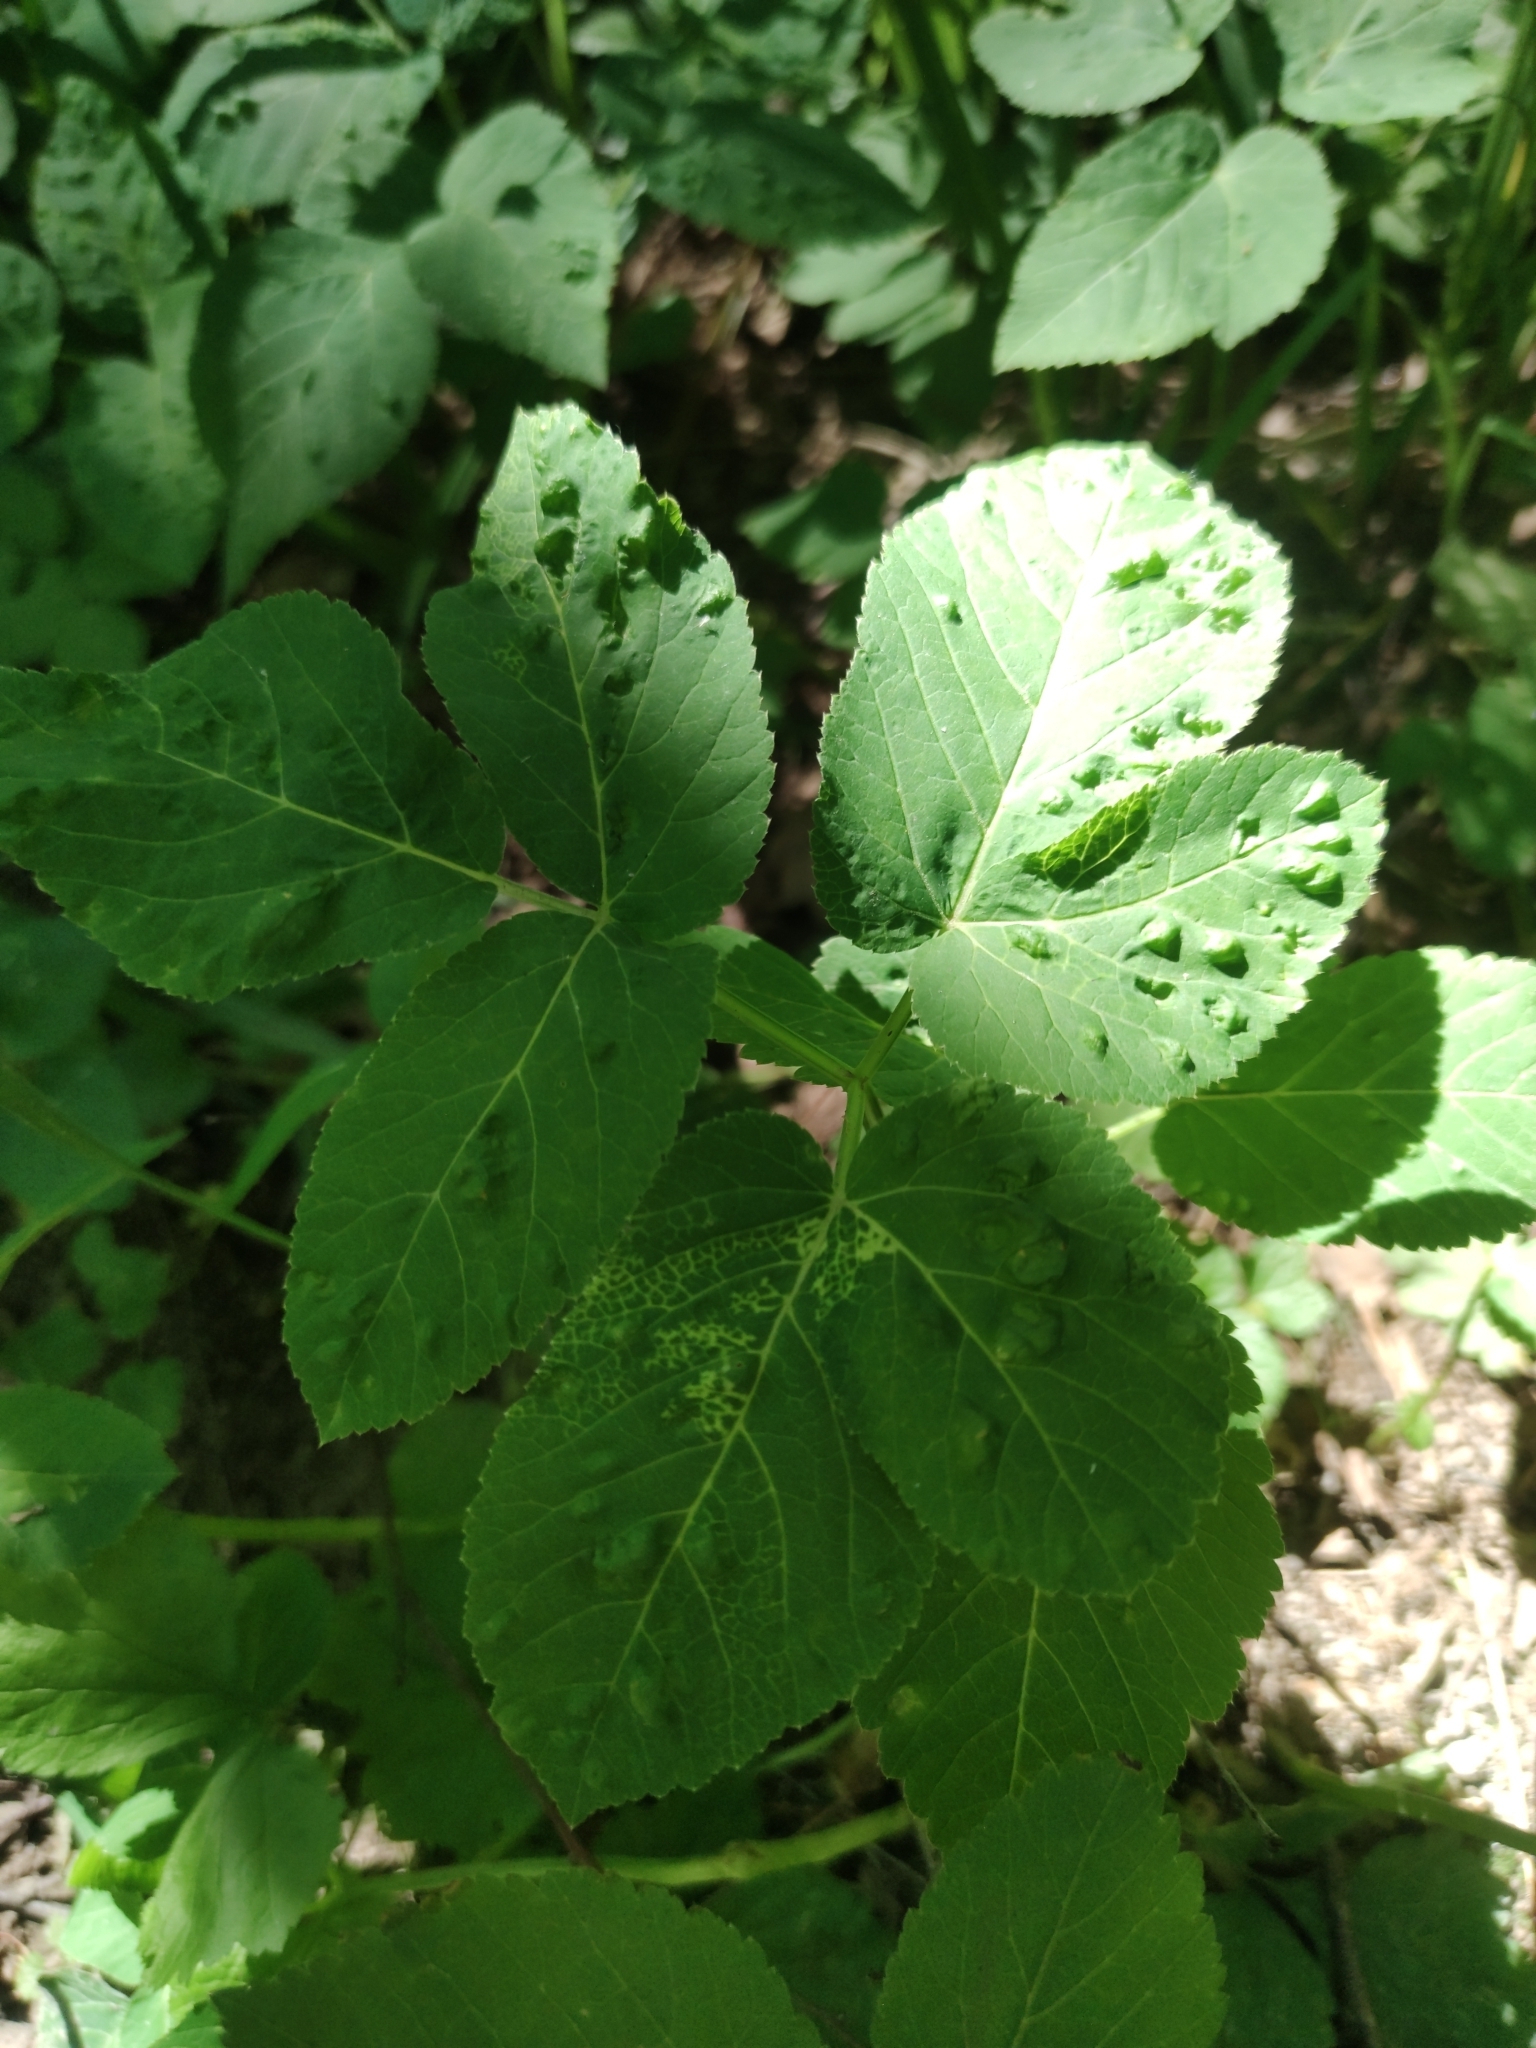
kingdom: Animalia
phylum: Arthropoda
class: Insecta
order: Hemiptera
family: Triozidae
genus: Trioza
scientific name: Trioza flavipennis
